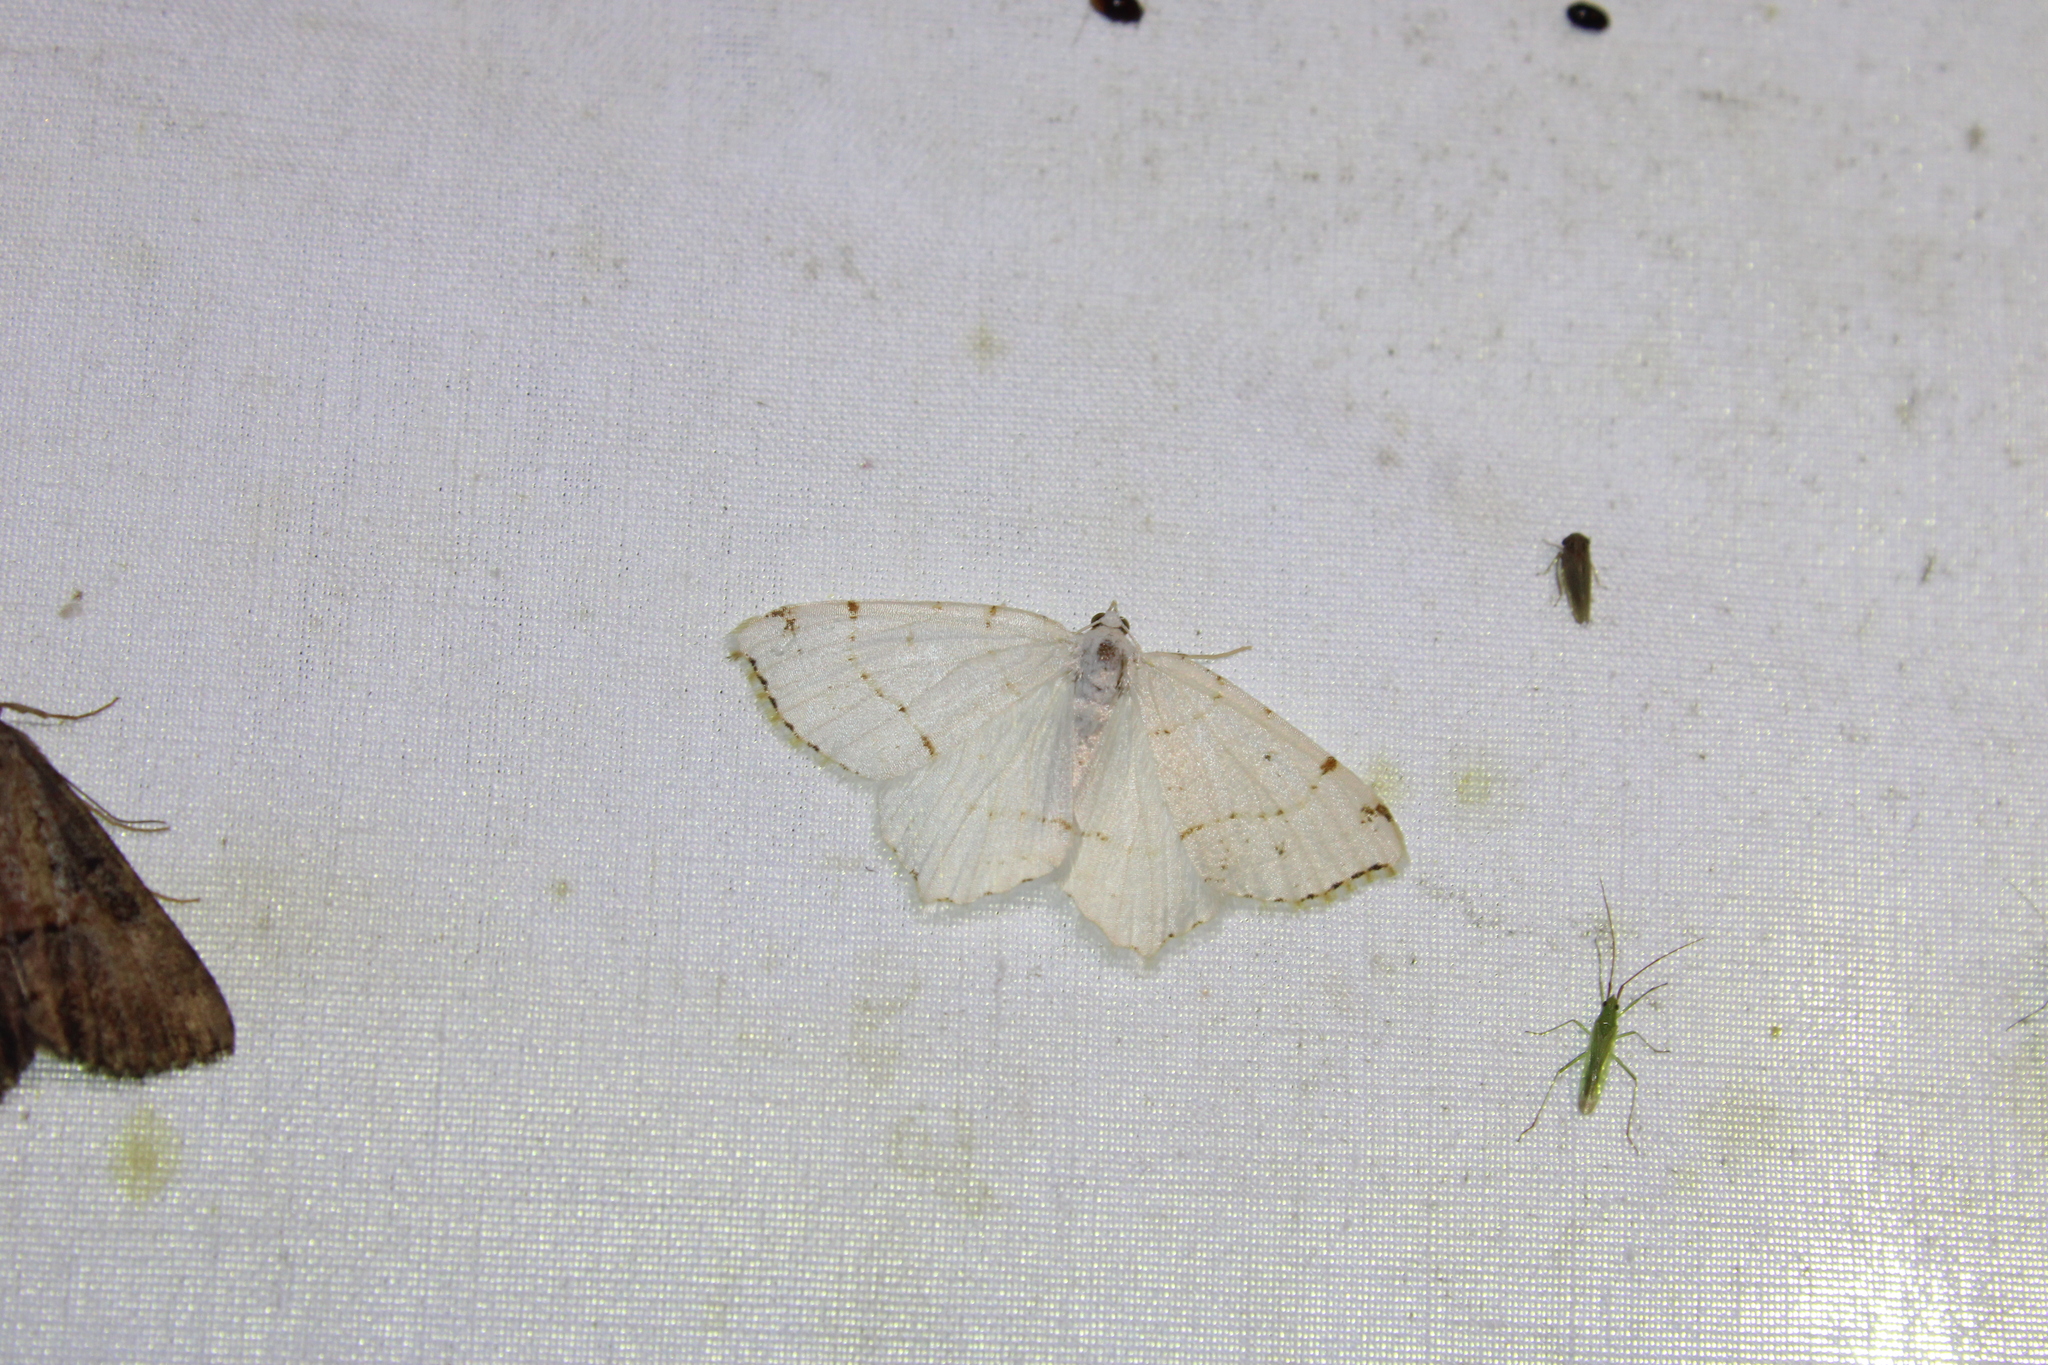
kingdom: Animalia
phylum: Arthropoda
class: Insecta
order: Lepidoptera
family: Geometridae
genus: Macaria
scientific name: Macaria pustularia
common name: Lesser maple spanworm moth
